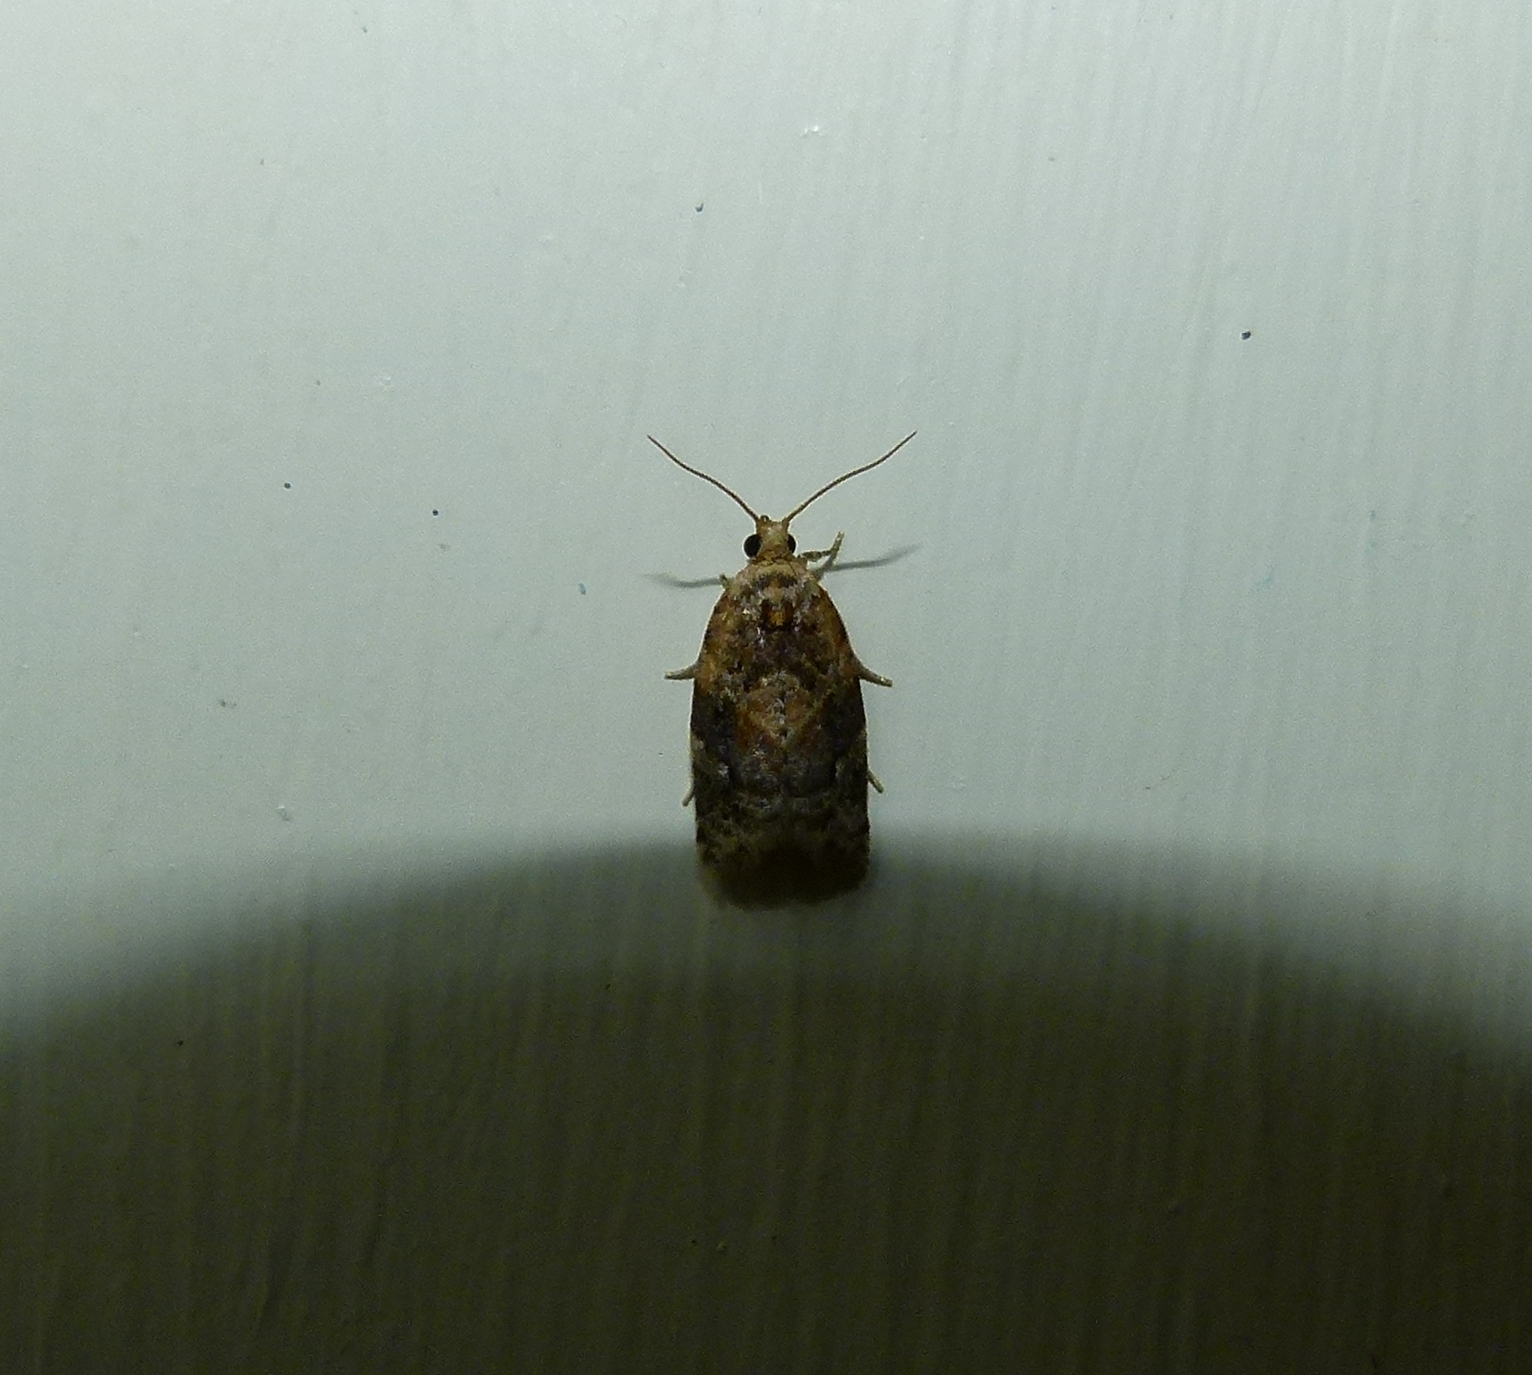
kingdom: Animalia
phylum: Arthropoda
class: Insecta
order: Lepidoptera
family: Tortricidae
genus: Argyrotaenia
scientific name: Argyrotaenia velutinana
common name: Red-banded leafroller moth
